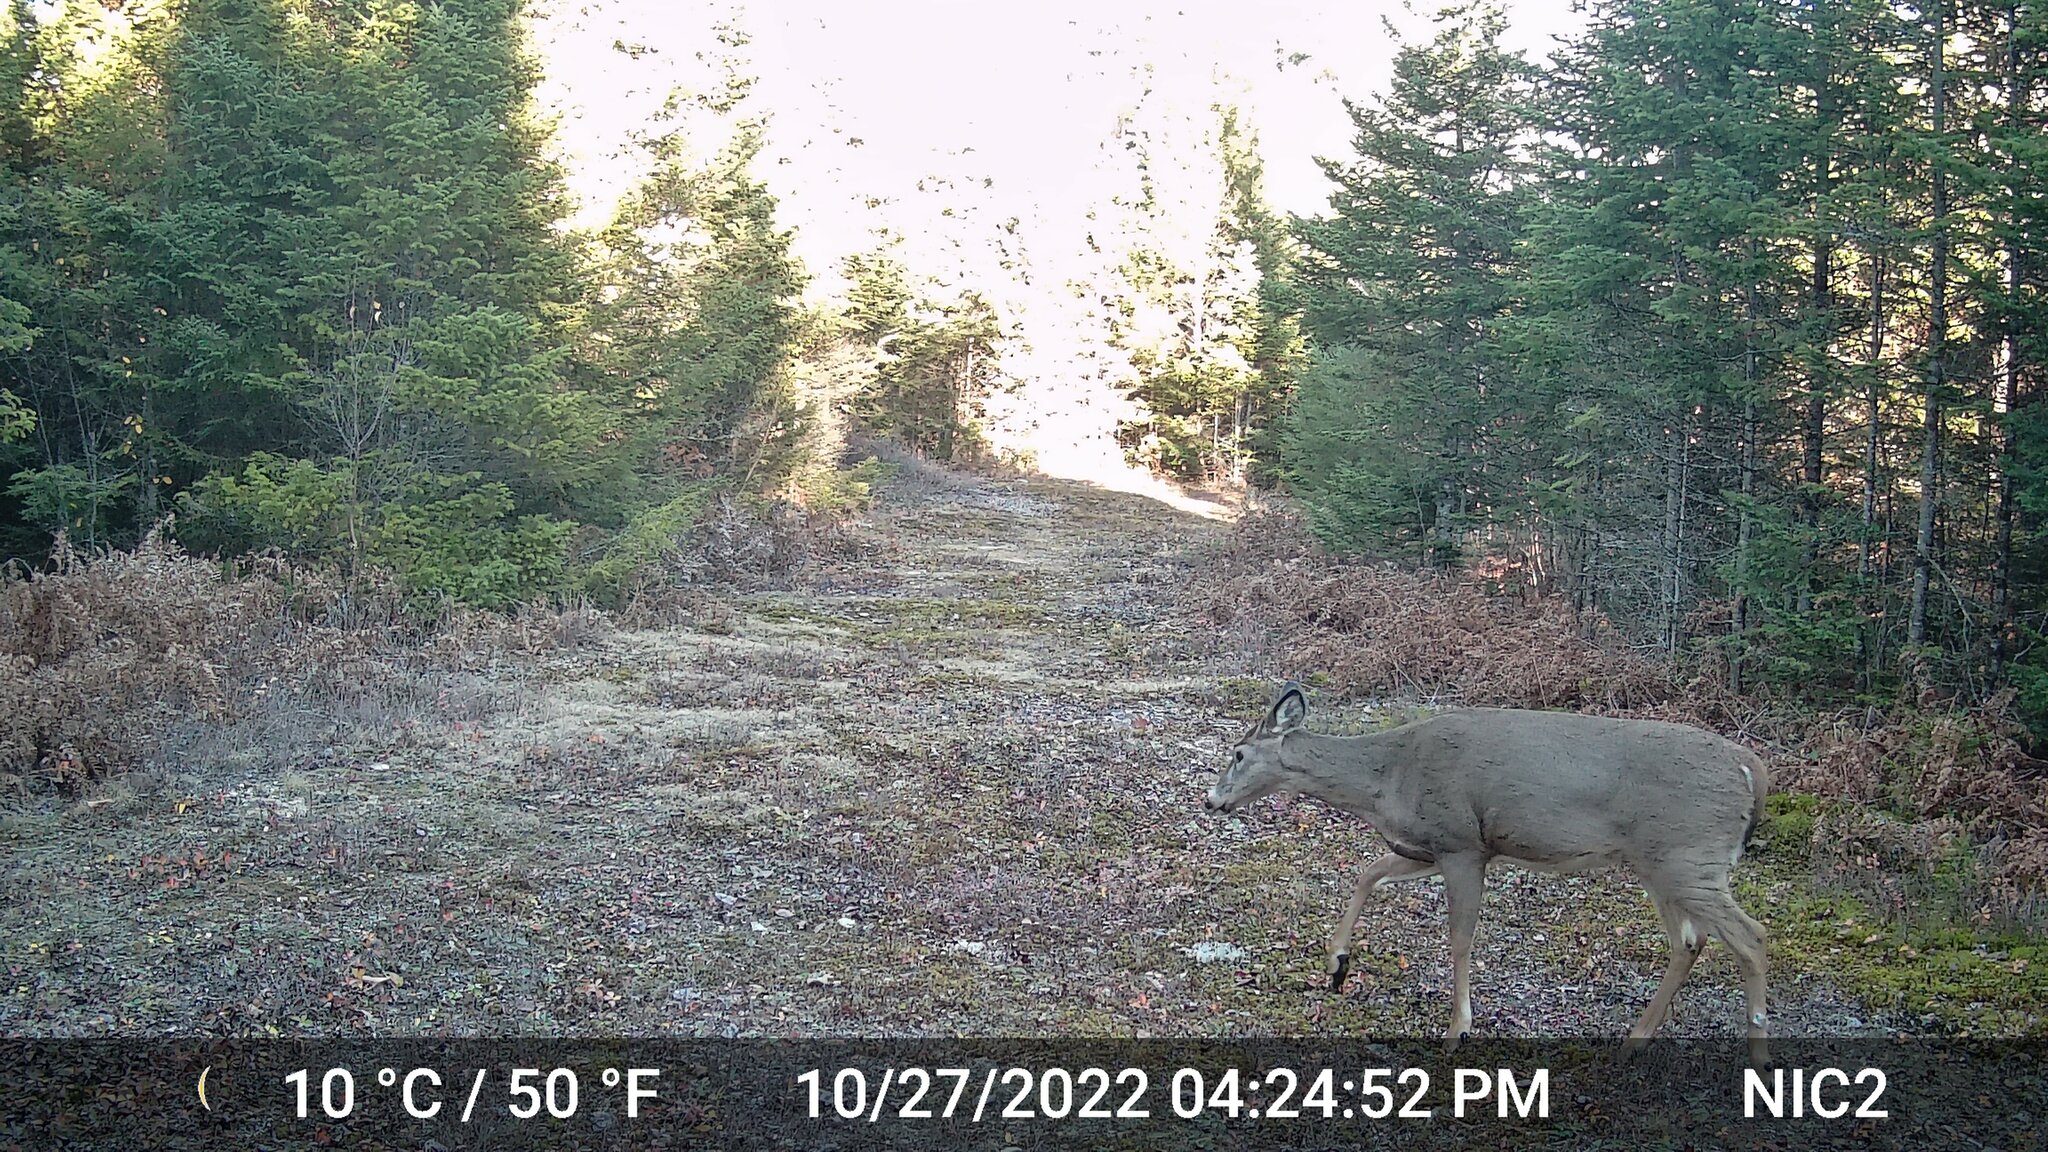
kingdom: Animalia
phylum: Chordata
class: Mammalia
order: Artiodactyla
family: Cervidae
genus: Odocoileus
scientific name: Odocoileus virginianus
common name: White-tailed deer
